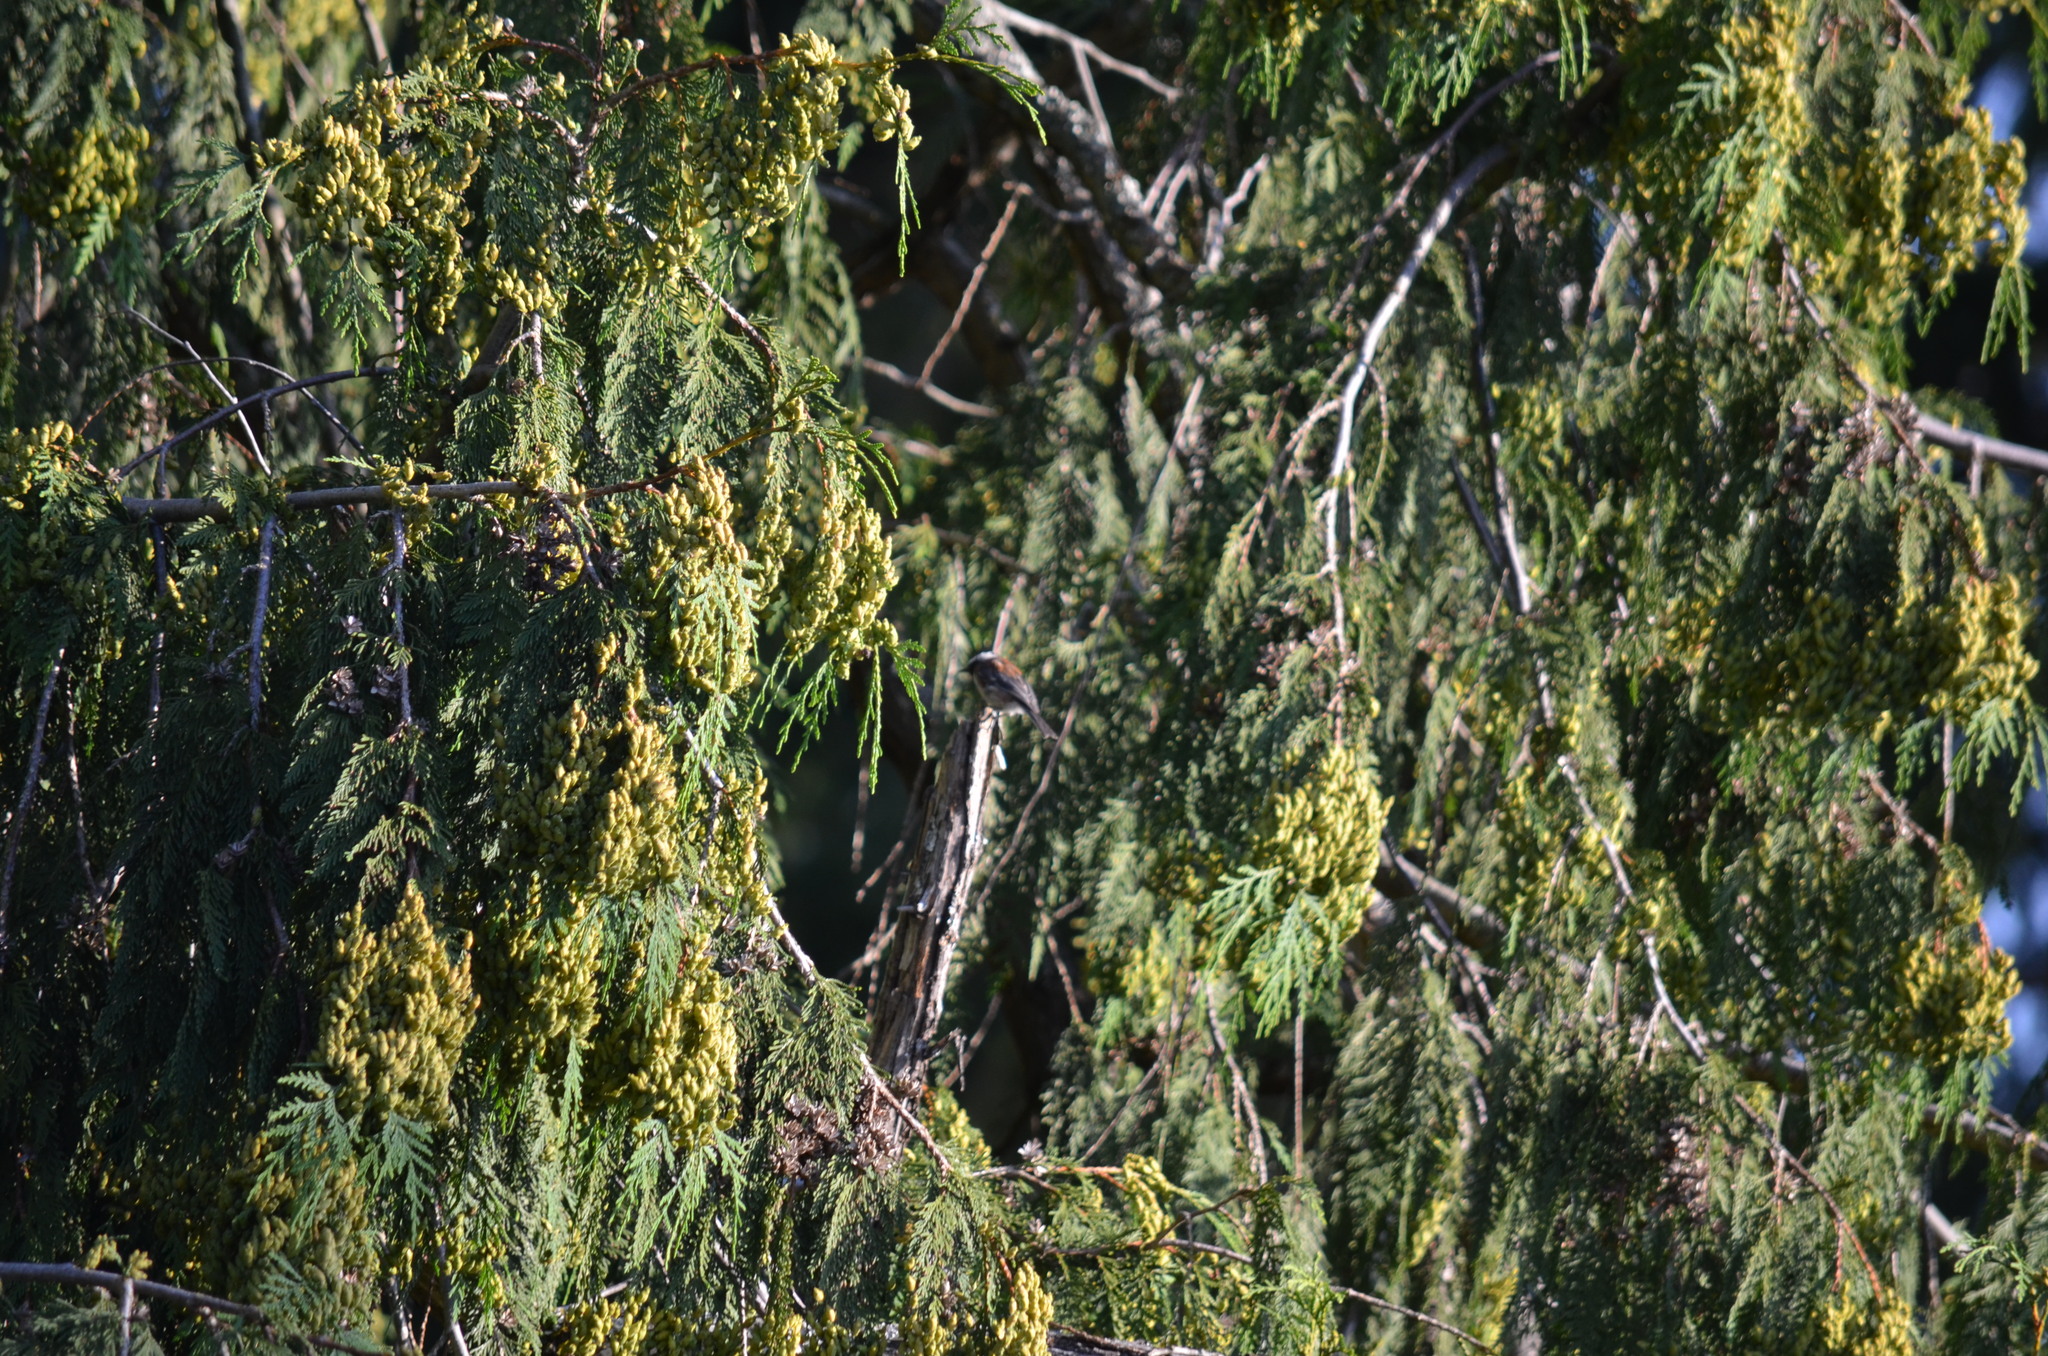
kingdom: Animalia
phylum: Chordata
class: Aves
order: Passeriformes
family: Paridae
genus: Poecile
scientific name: Poecile rufescens
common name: Chestnut-backed chickadee
